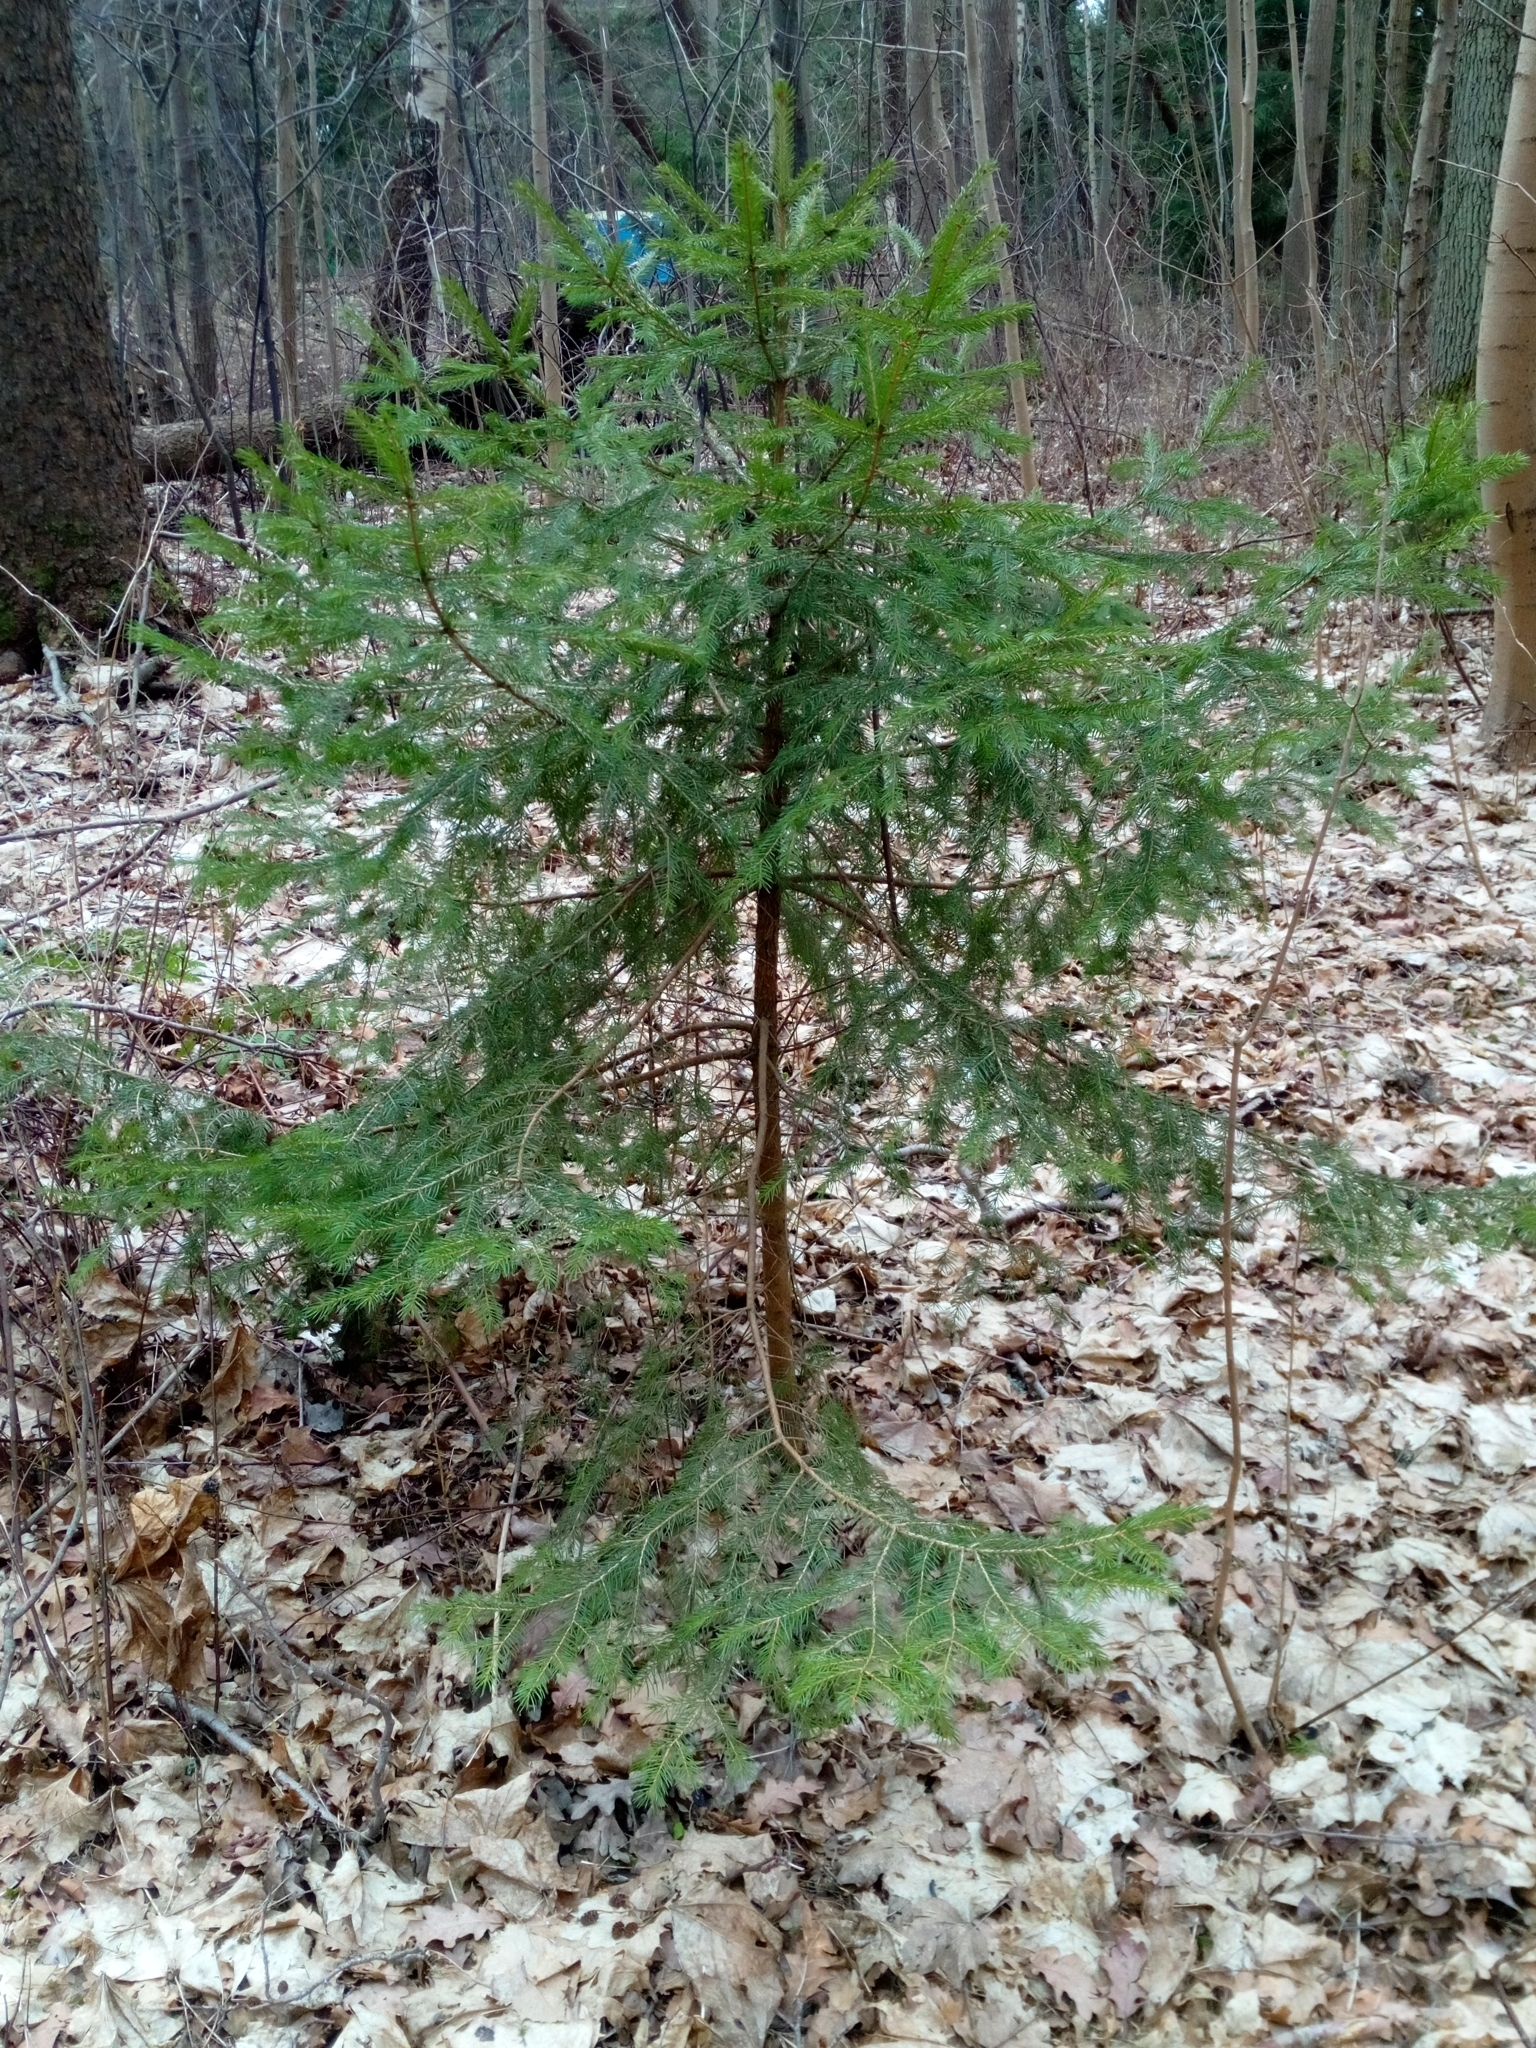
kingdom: Plantae
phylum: Tracheophyta
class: Pinopsida
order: Pinales
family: Pinaceae
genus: Picea
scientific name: Picea abies
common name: Norway spruce
